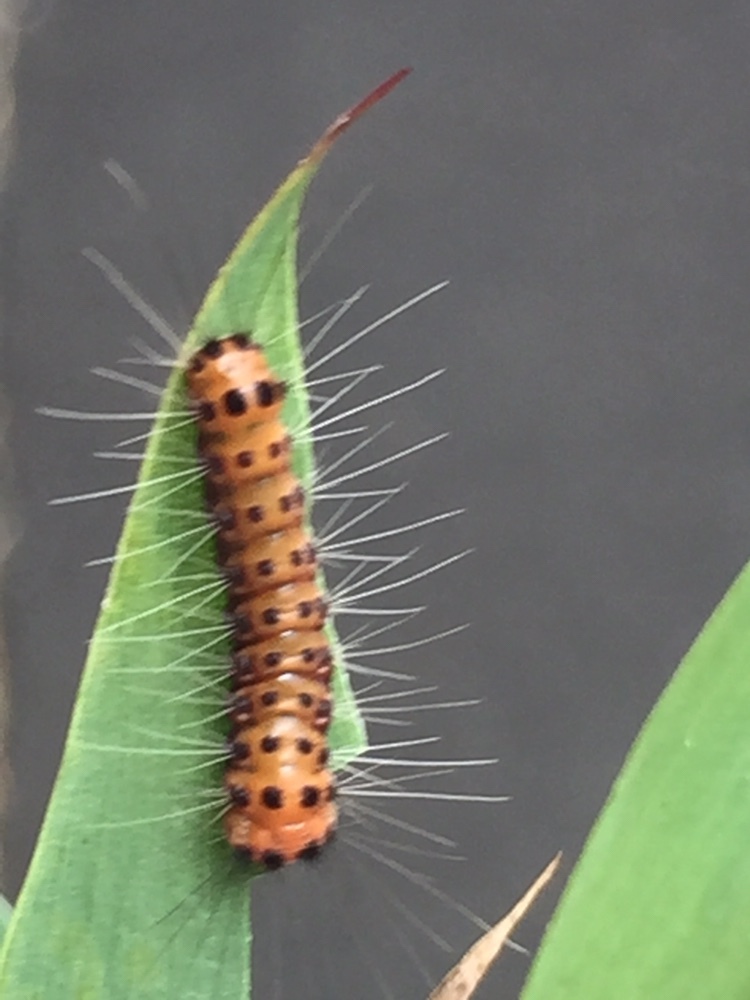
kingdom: Animalia
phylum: Arthropoda
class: Insecta
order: Lepidoptera
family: Zygaenidae
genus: Artona
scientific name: Artona martini
